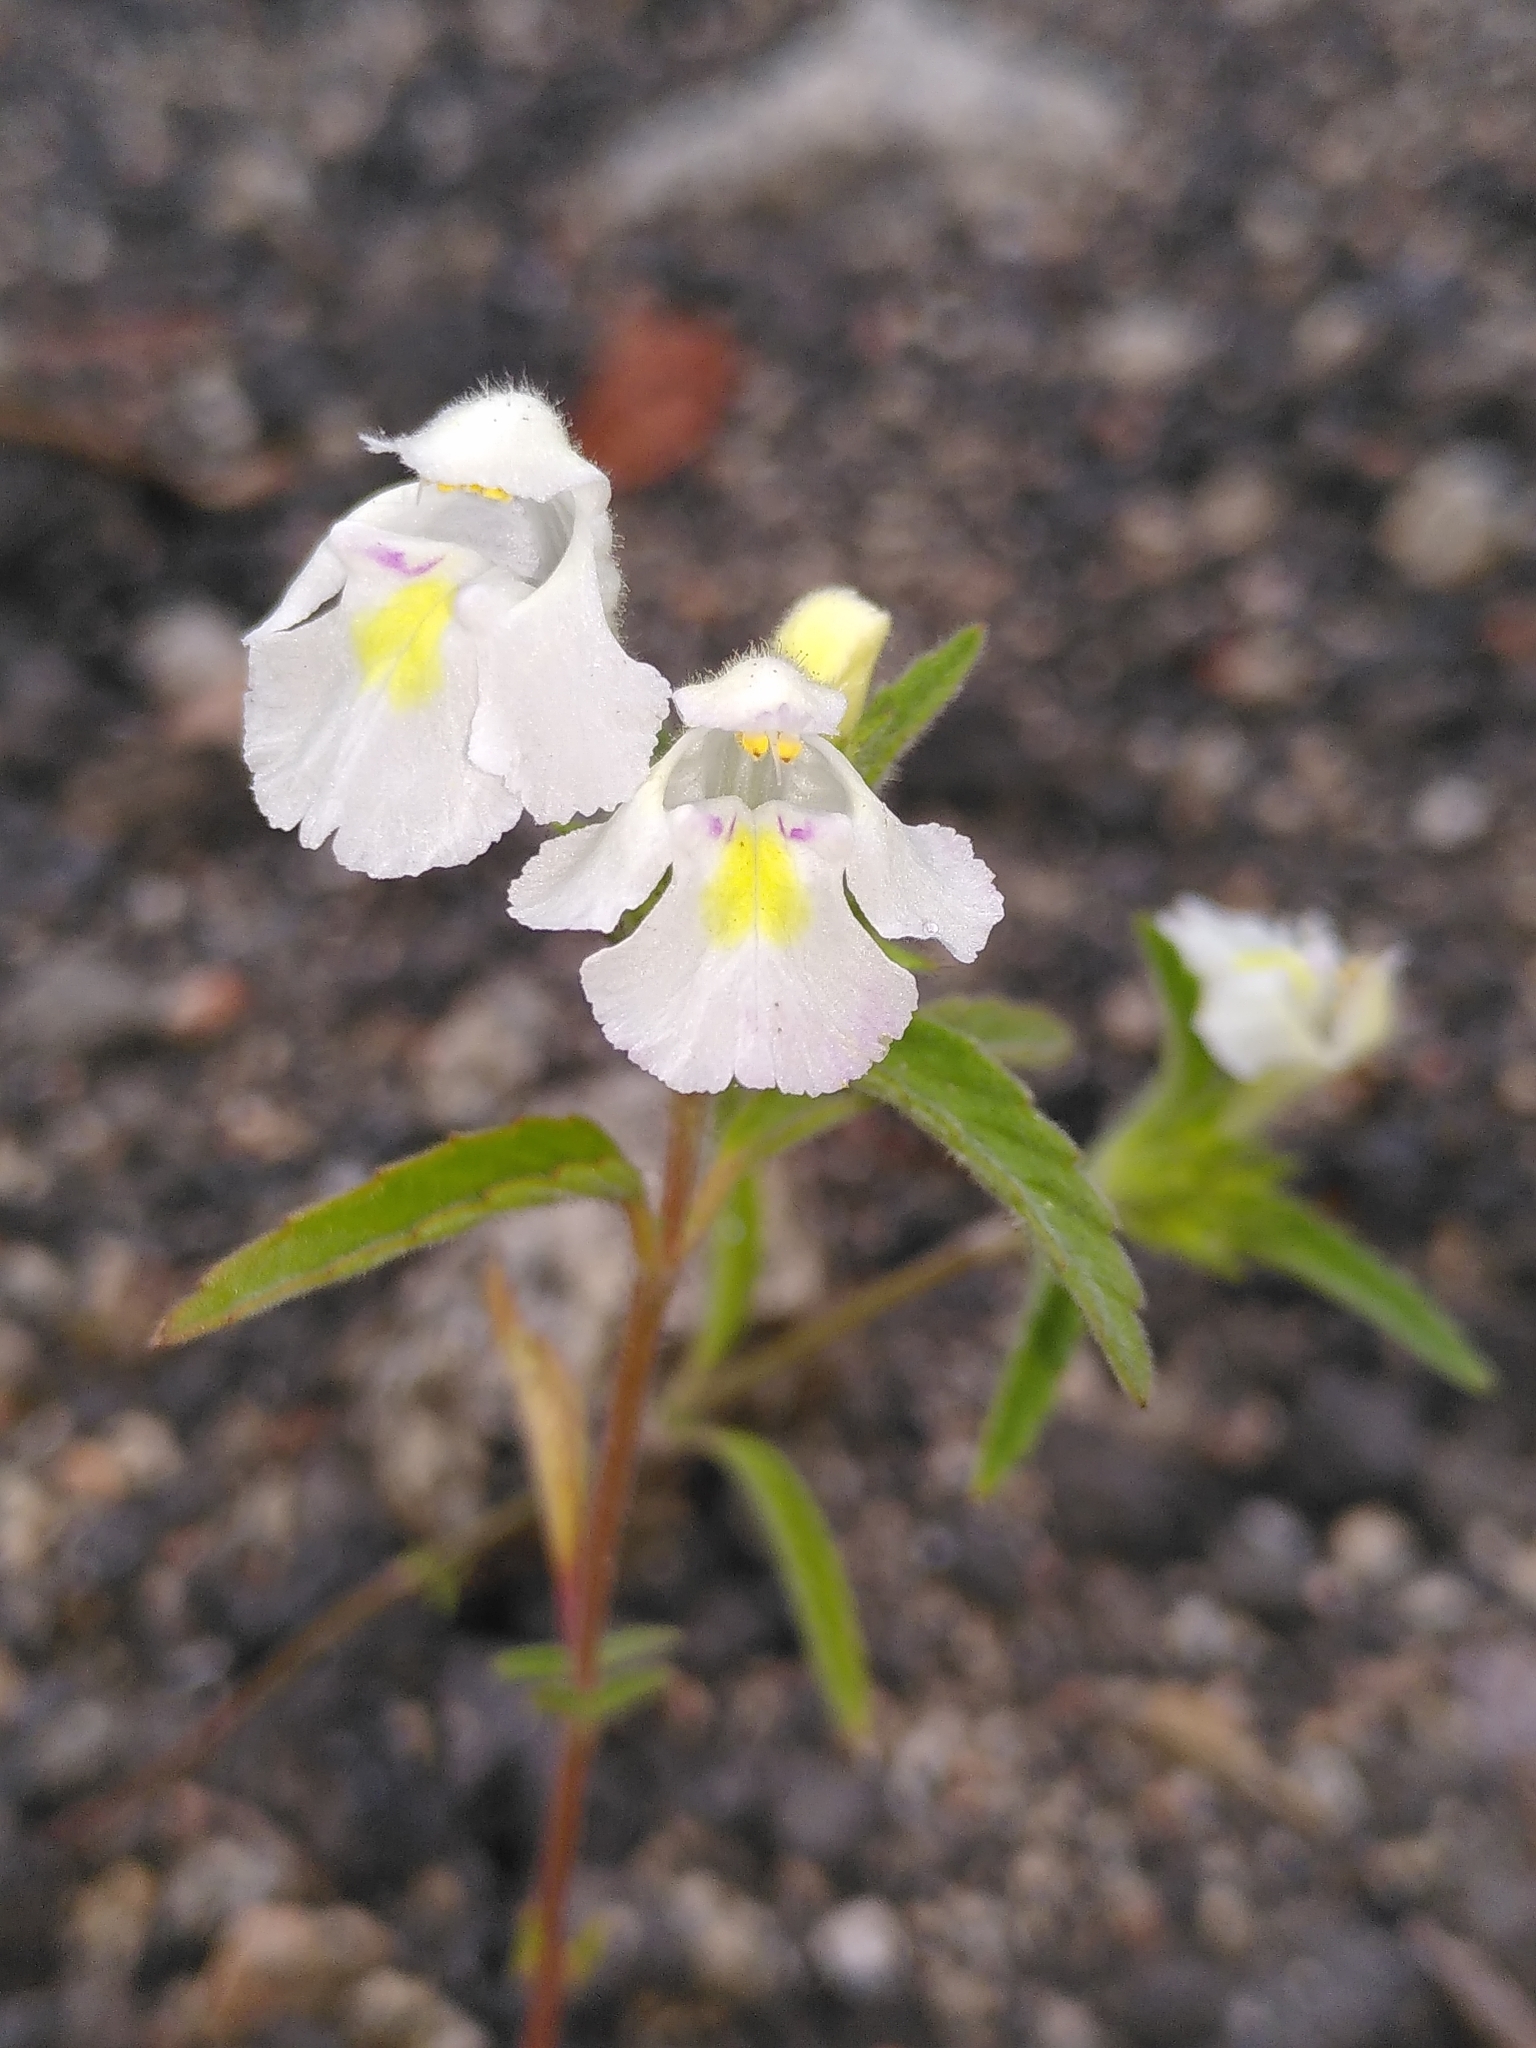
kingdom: Plantae
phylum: Tracheophyta
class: Magnoliopsida
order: Lamiales
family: Lamiaceae
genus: Galeopsis
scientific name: Galeopsis segetum
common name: Downy hemp-nettle
